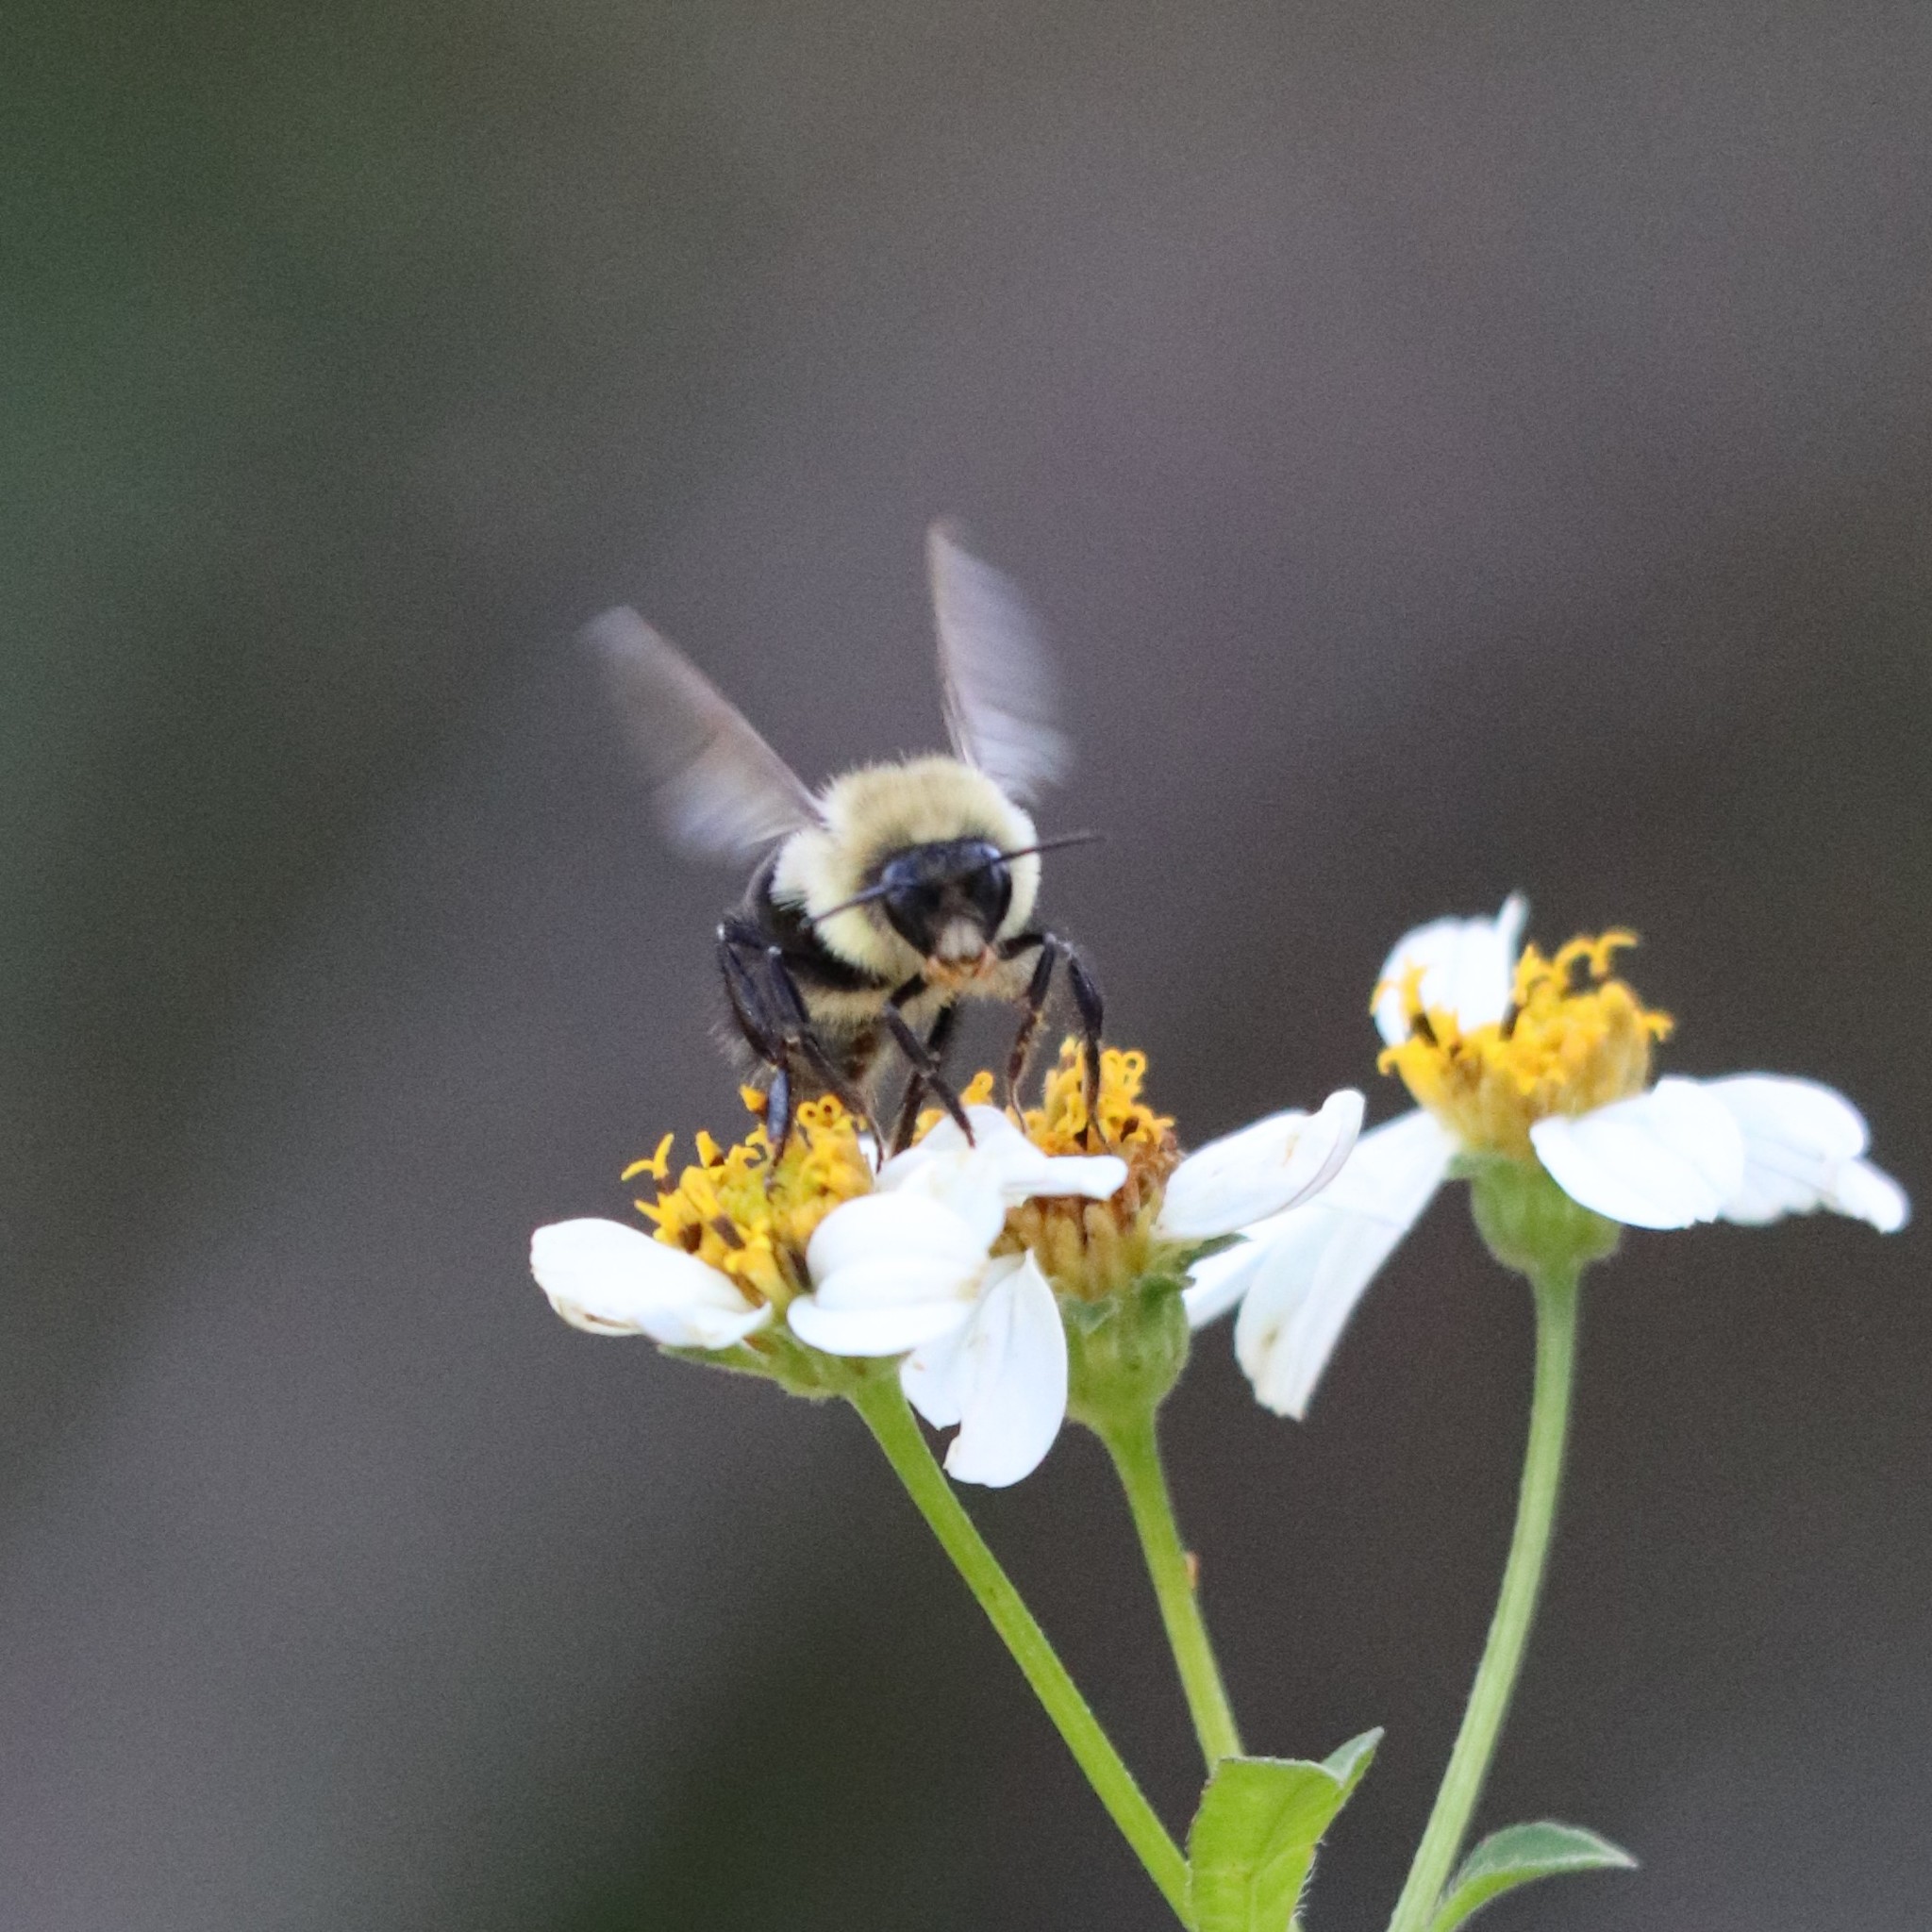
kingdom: Animalia
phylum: Arthropoda
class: Insecta
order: Hymenoptera
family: Apidae
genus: Bombus
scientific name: Bombus impatiens
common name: Common eastern bumble bee
